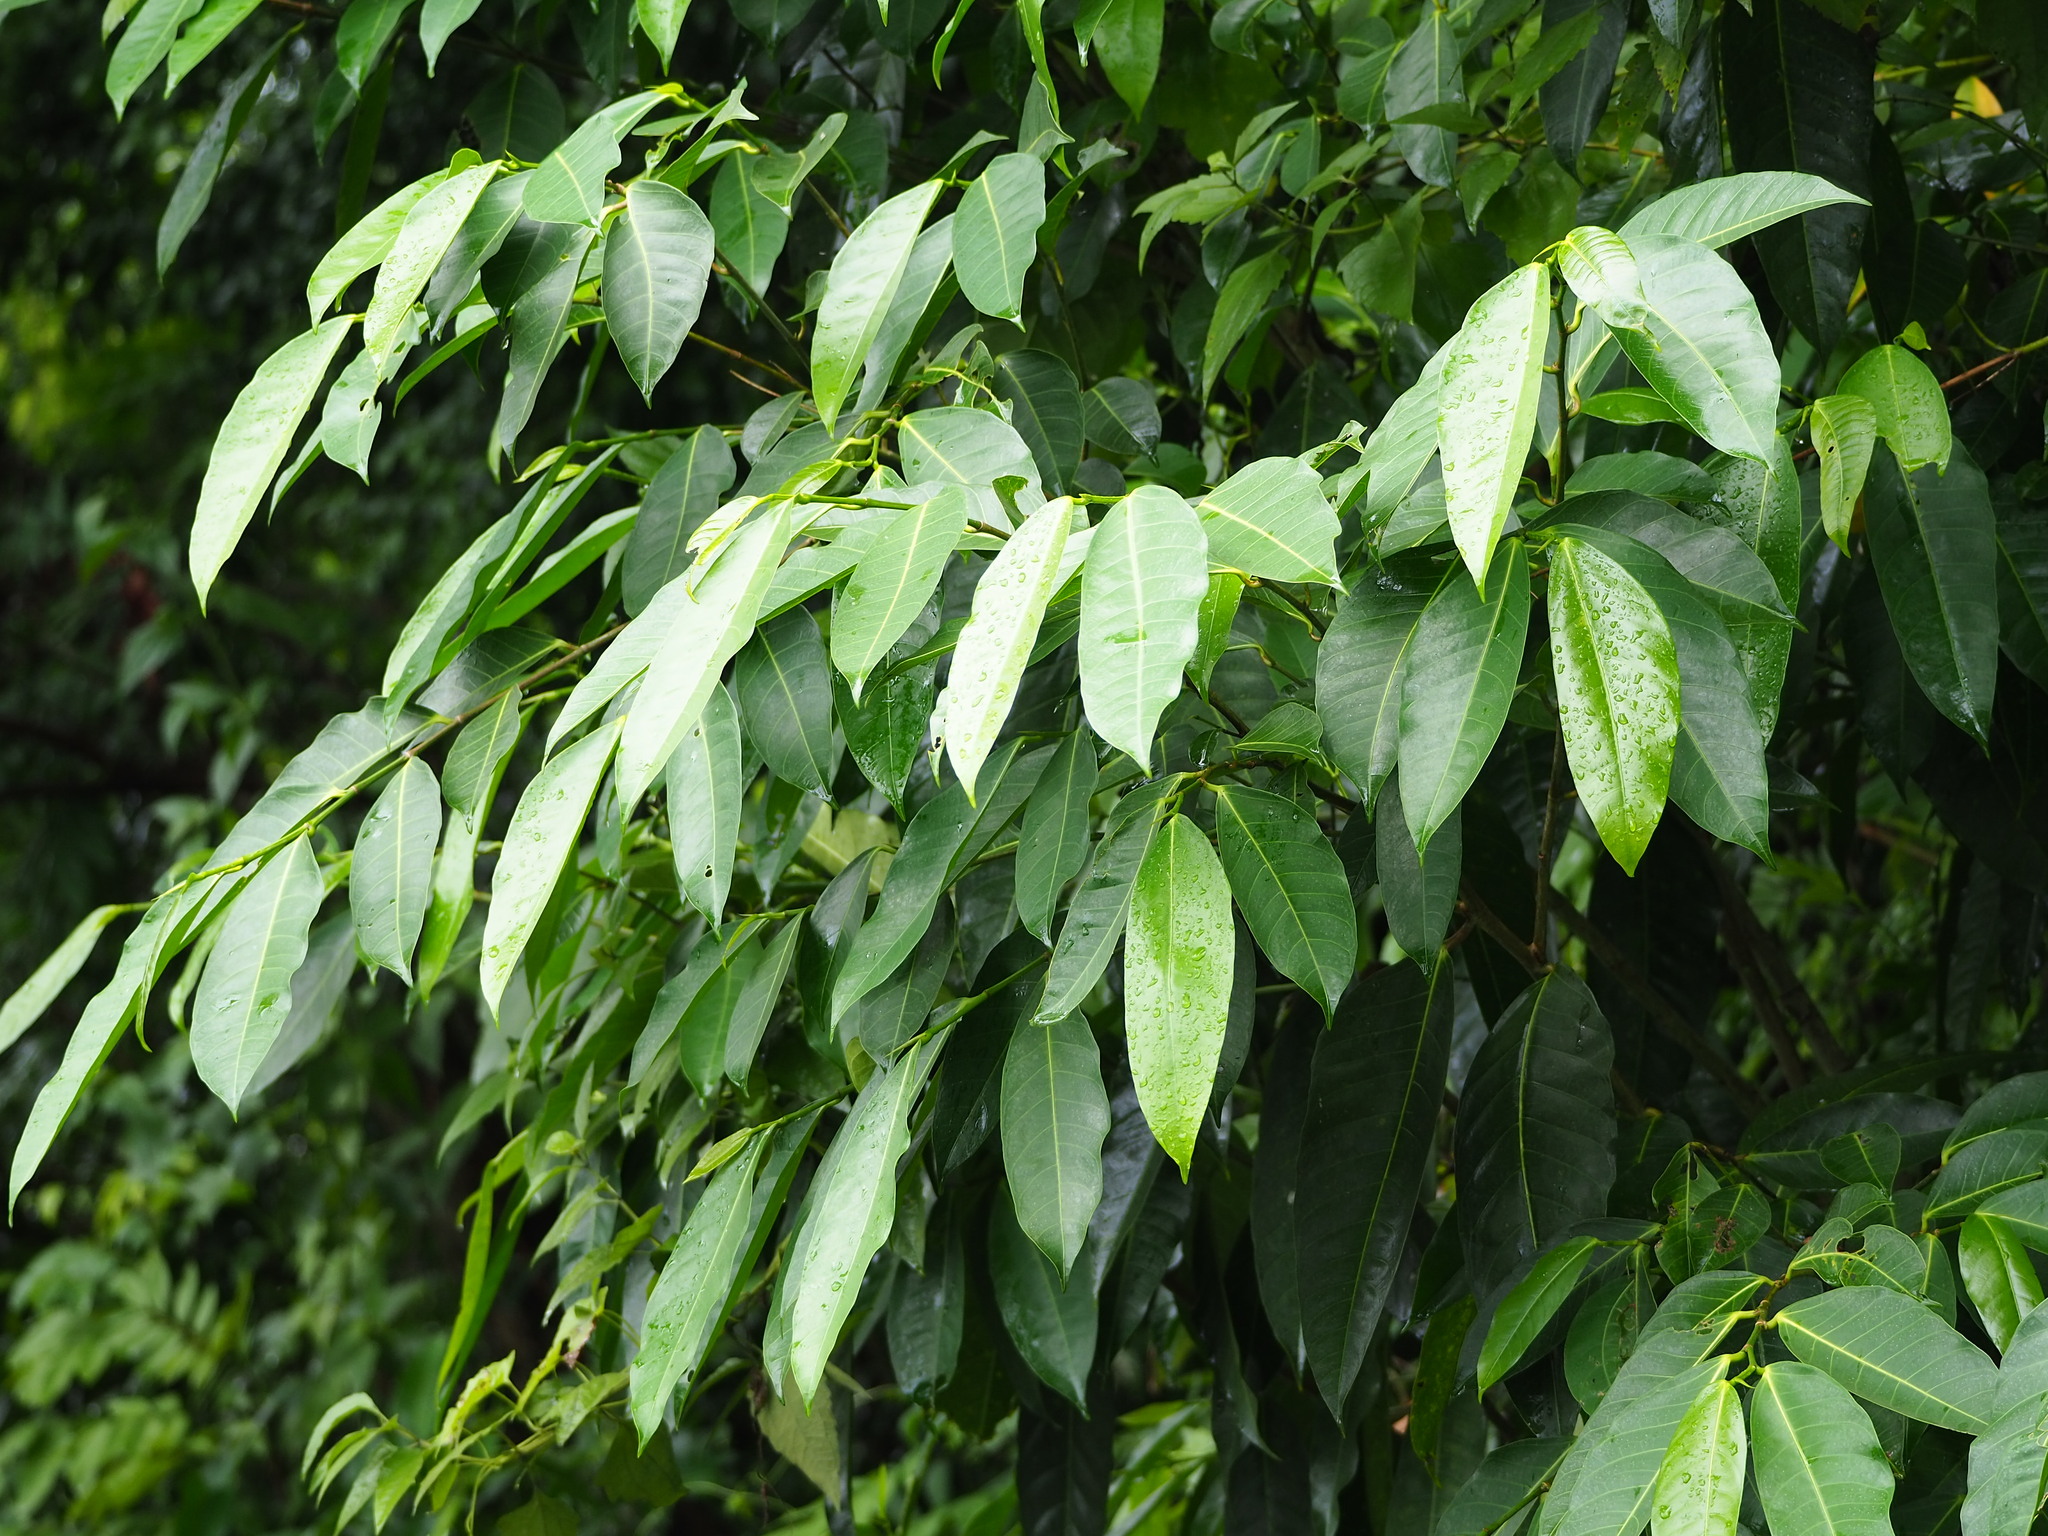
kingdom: Plantae
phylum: Tracheophyta
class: Magnoliopsida
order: Rosales
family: Moraceae
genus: Ficus
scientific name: Ficus virgata
